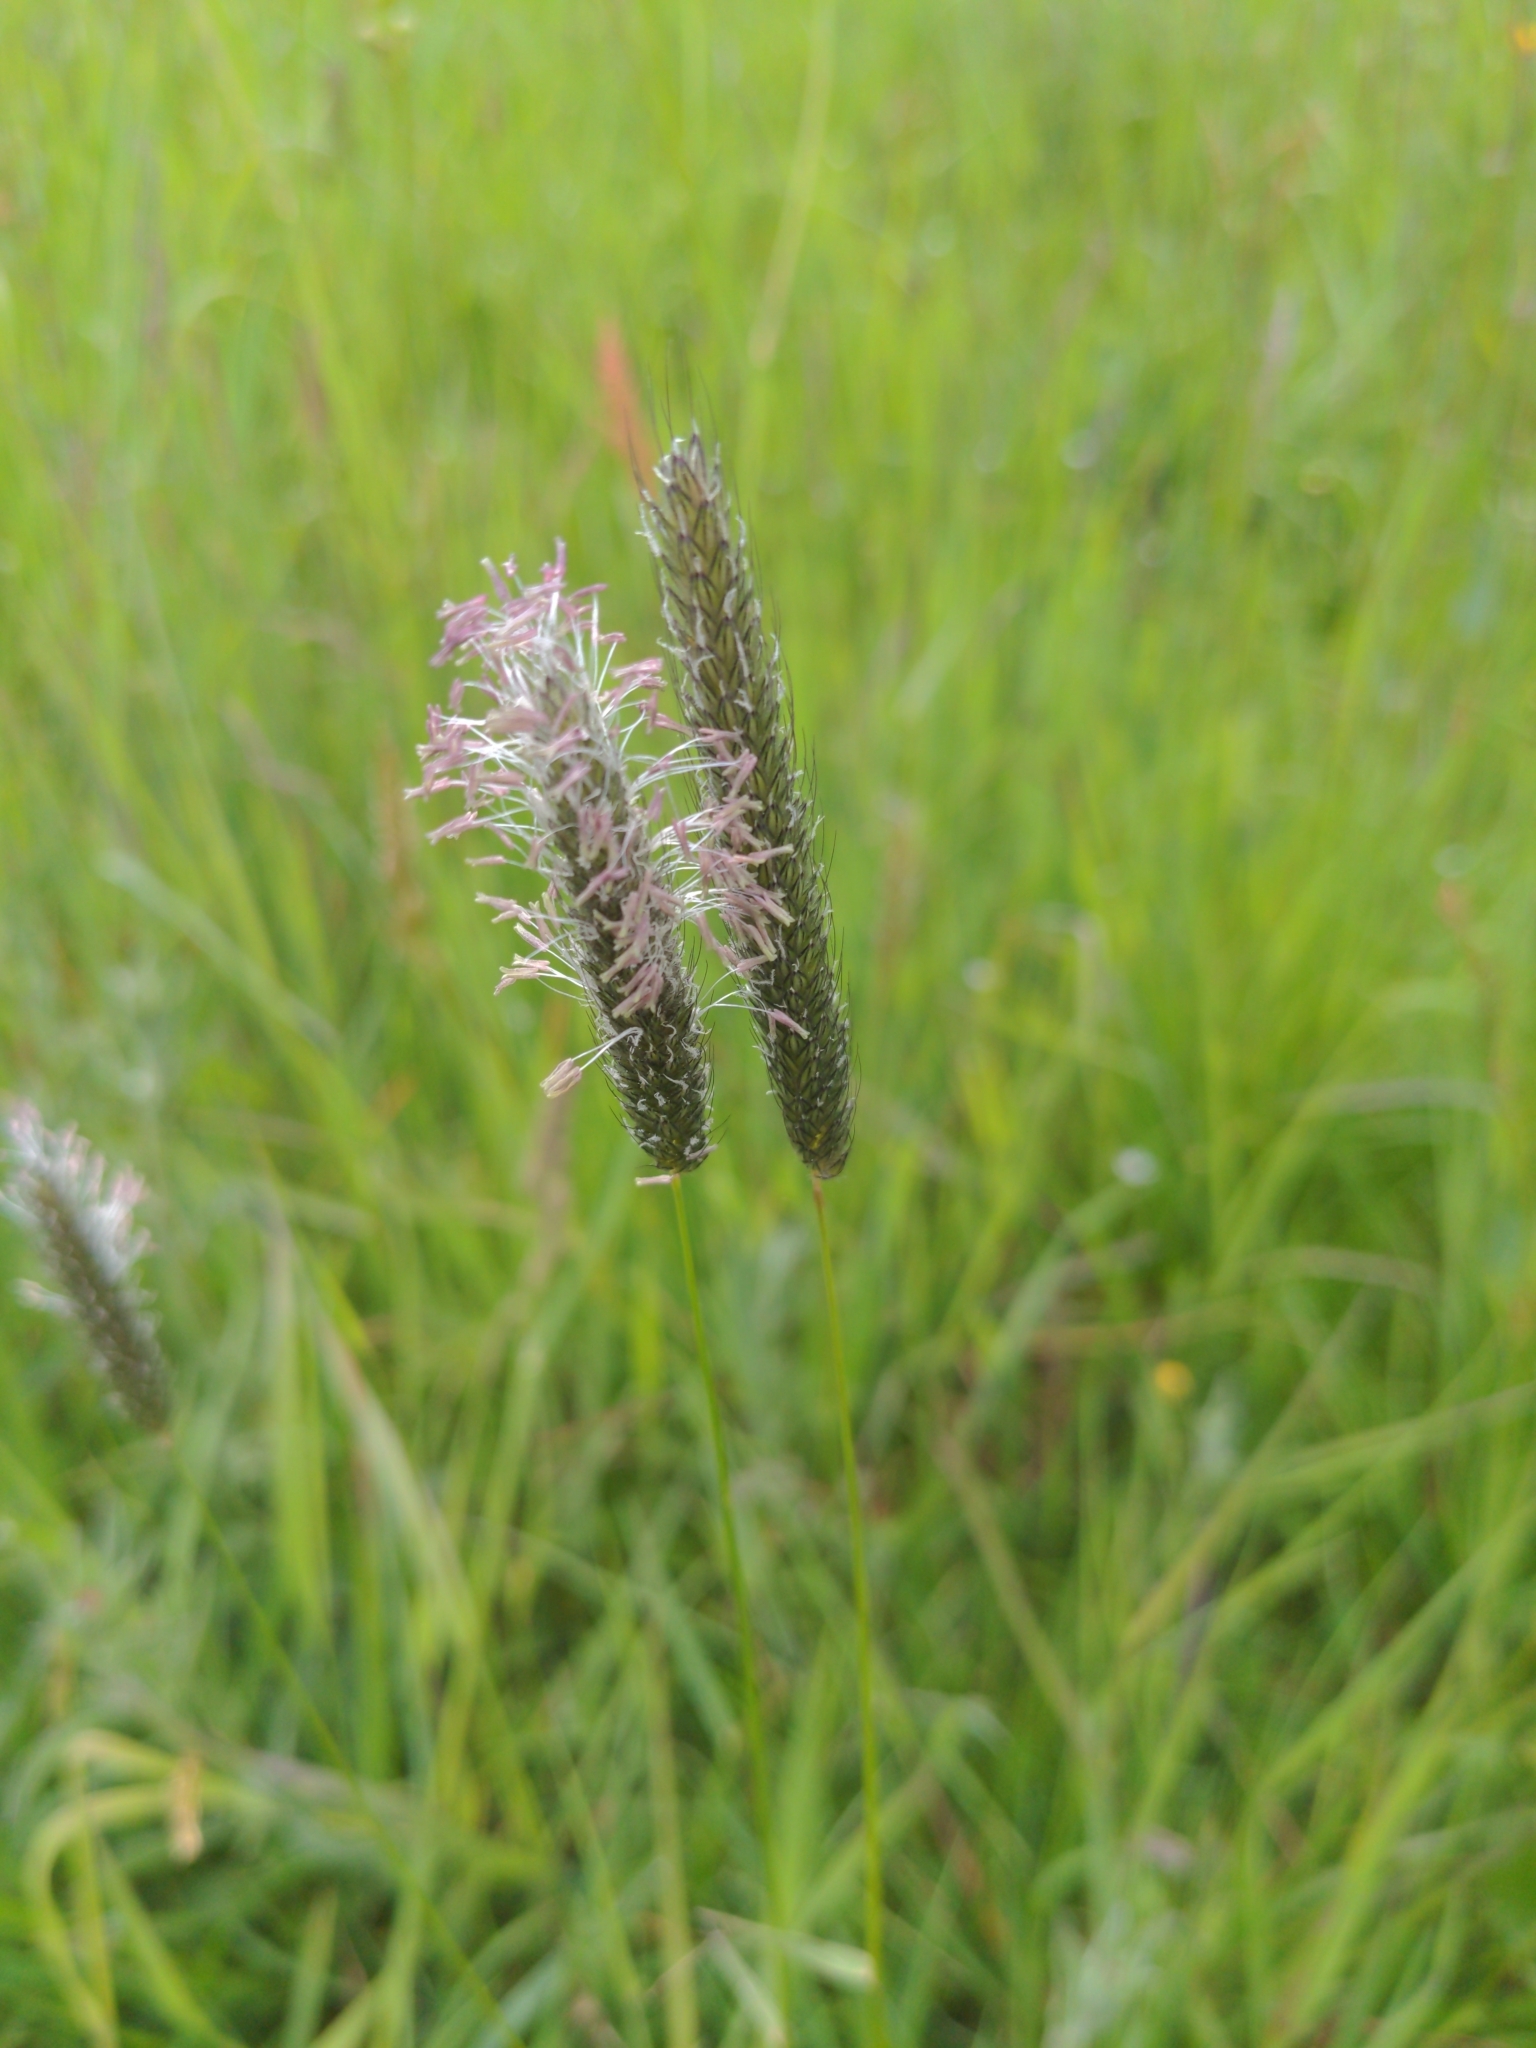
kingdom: Plantae
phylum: Tracheophyta
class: Liliopsida
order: Poales
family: Poaceae
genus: Alopecurus
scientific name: Alopecurus pratensis
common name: Meadow foxtail
